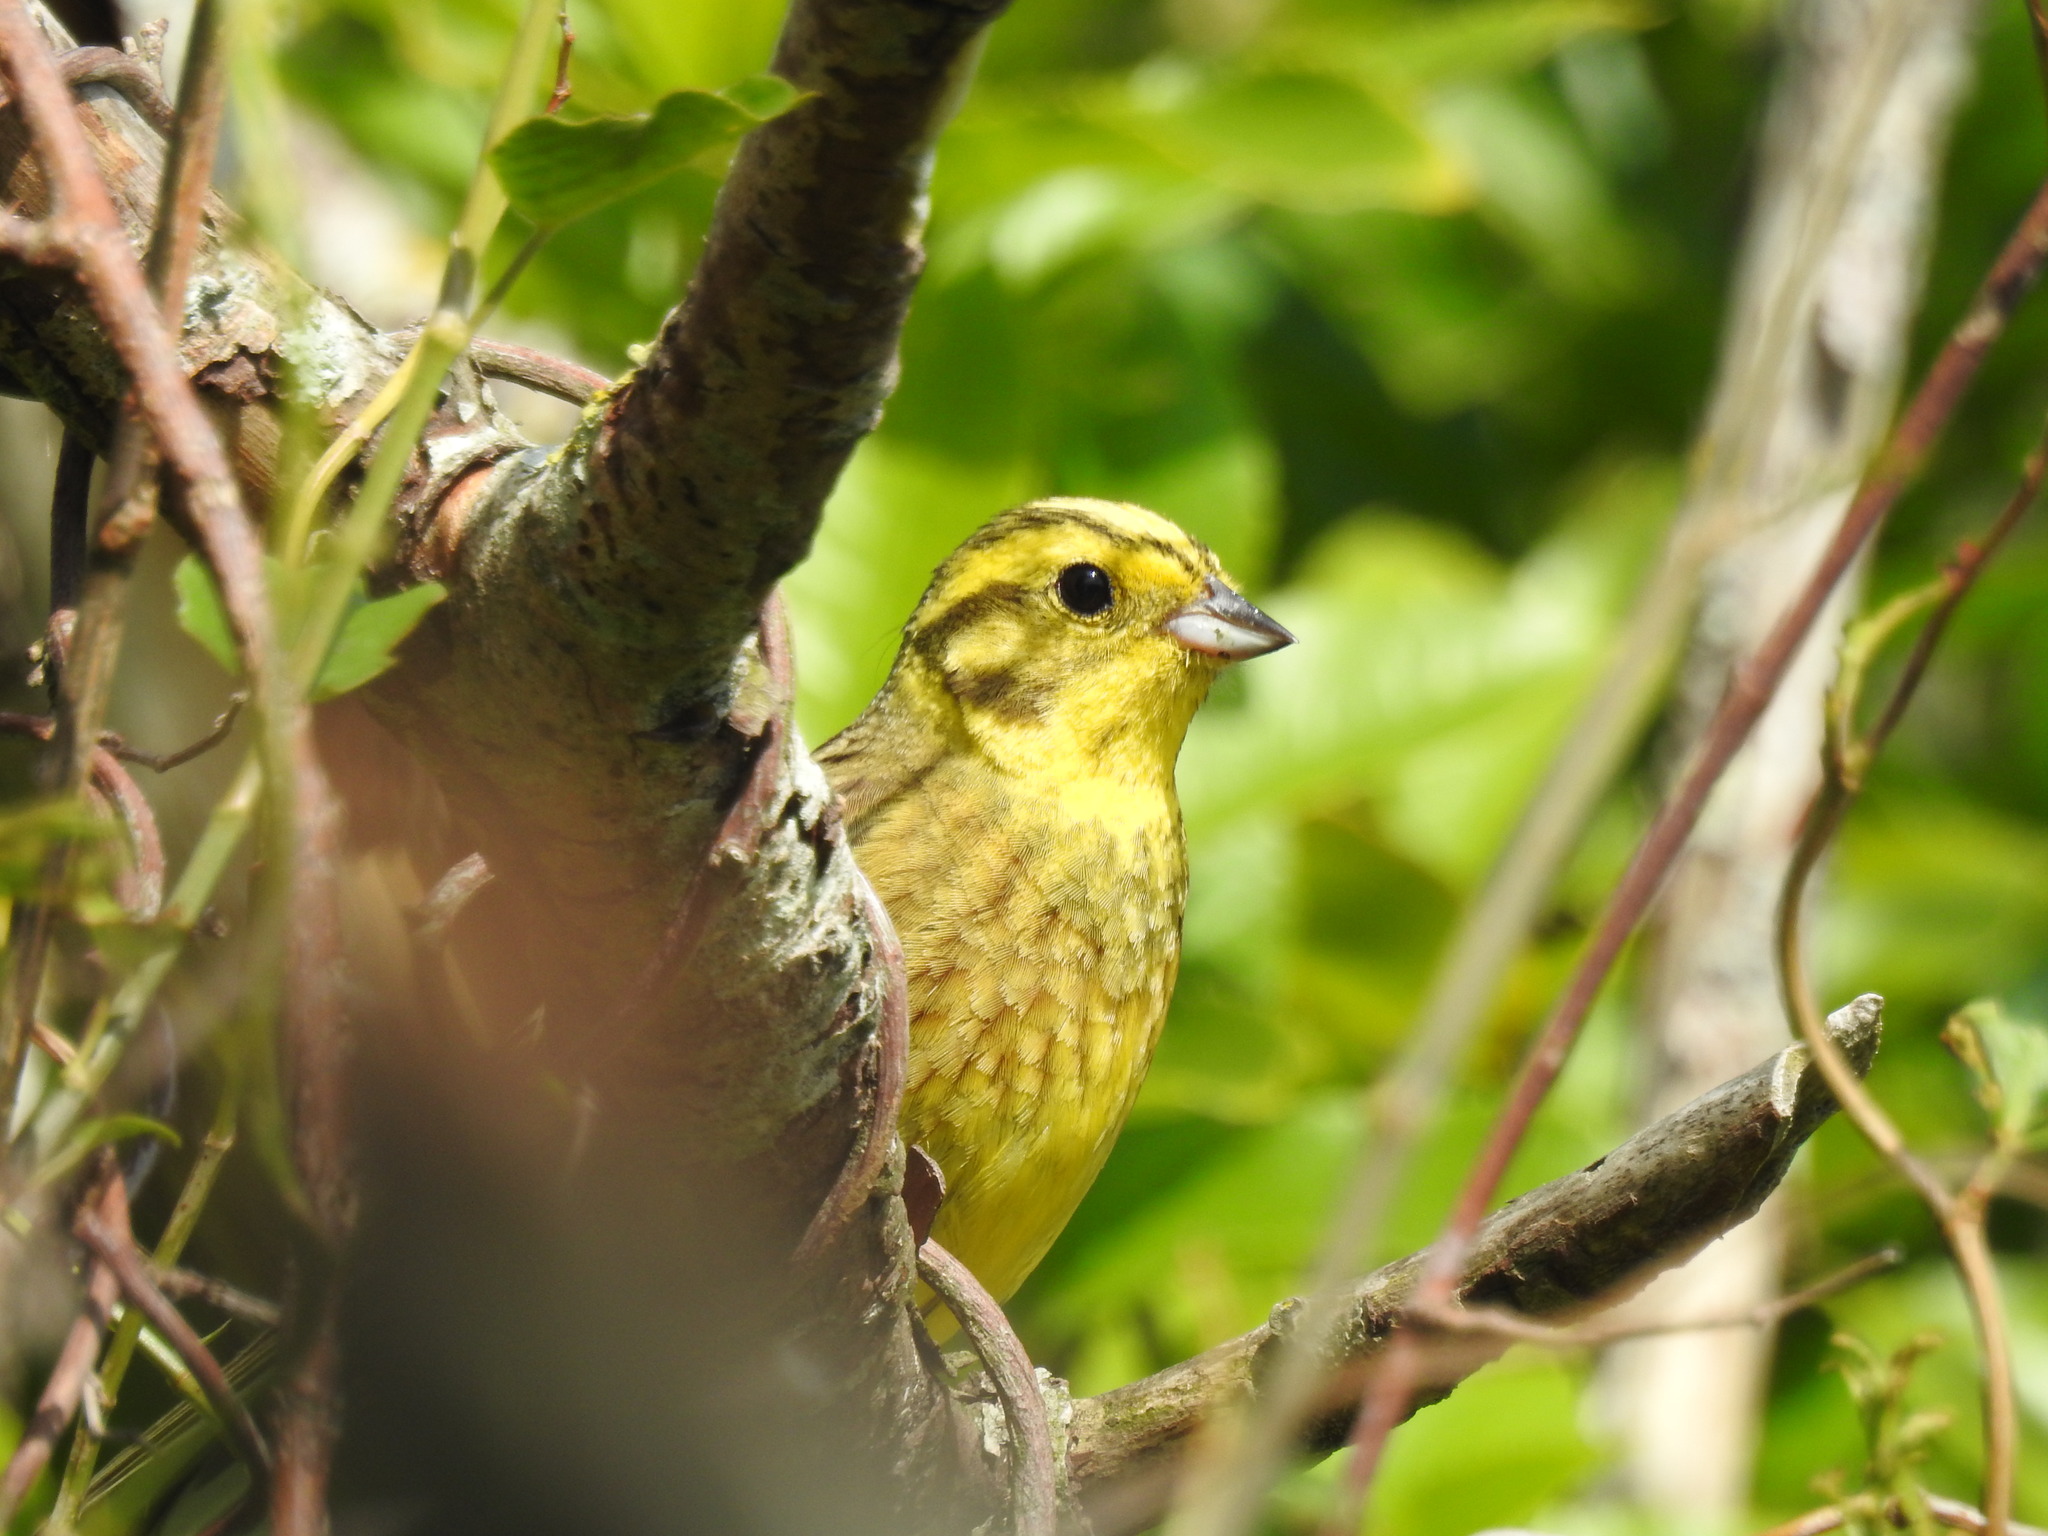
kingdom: Animalia
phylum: Chordata
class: Aves
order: Passeriformes
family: Emberizidae
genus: Emberiza
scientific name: Emberiza citrinella
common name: Yellowhammer
